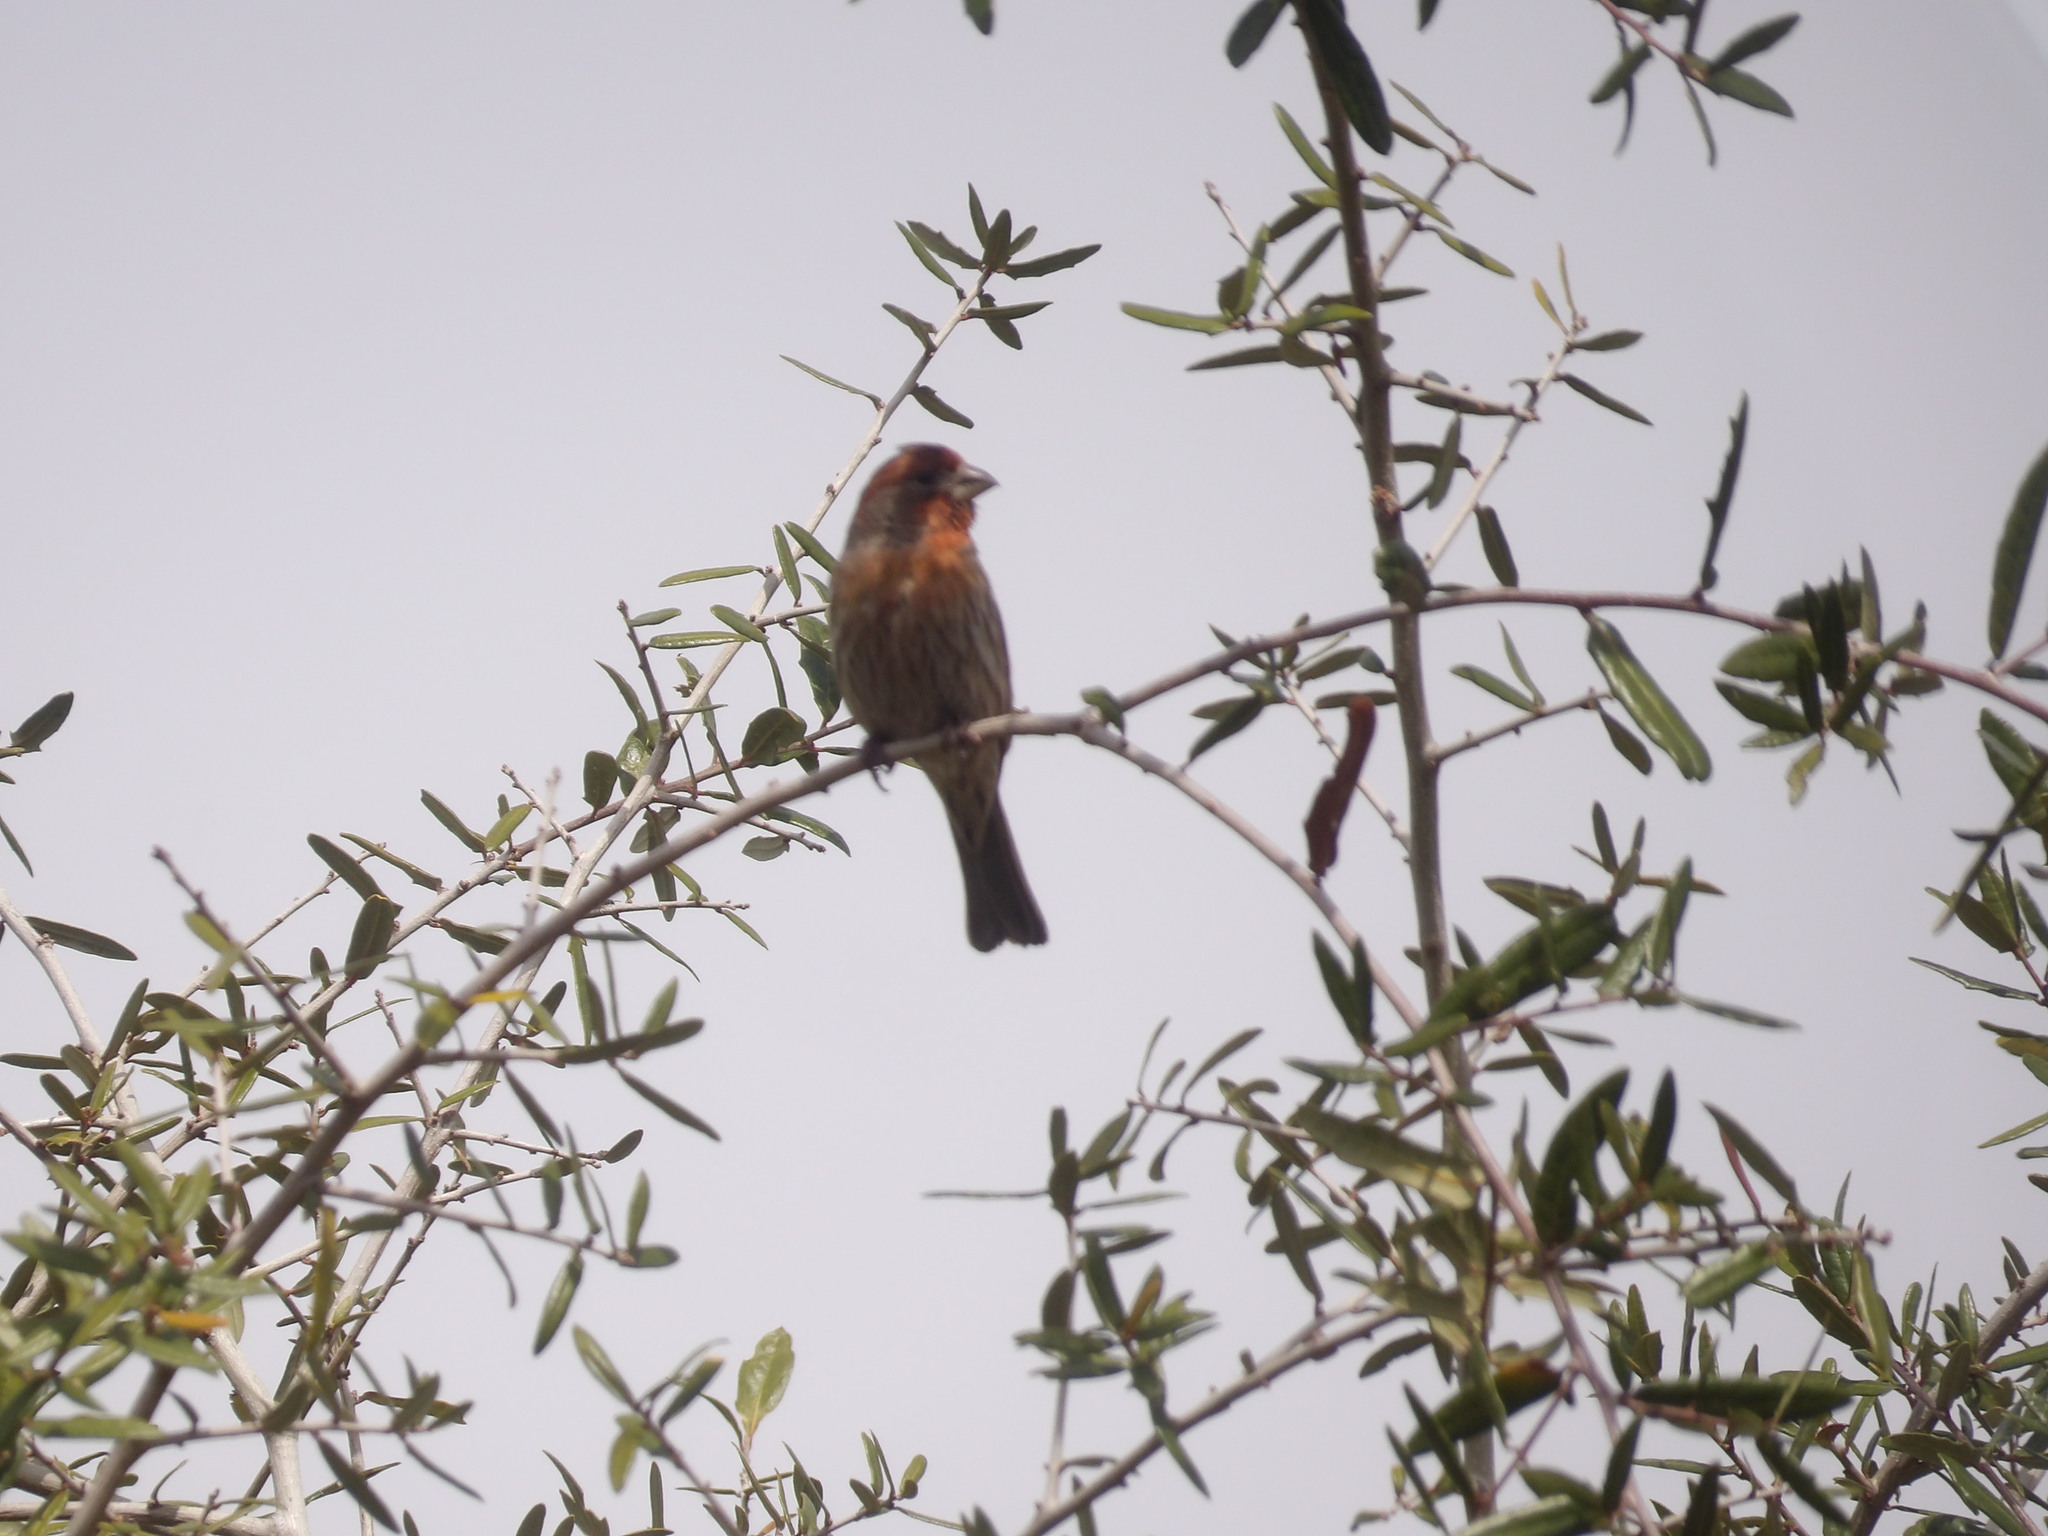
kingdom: Animalia
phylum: Chordata
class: Aves
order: Passeriformes
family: Fringillidae
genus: Haemorhous
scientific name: Haemorhous mexicanus
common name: House finch
